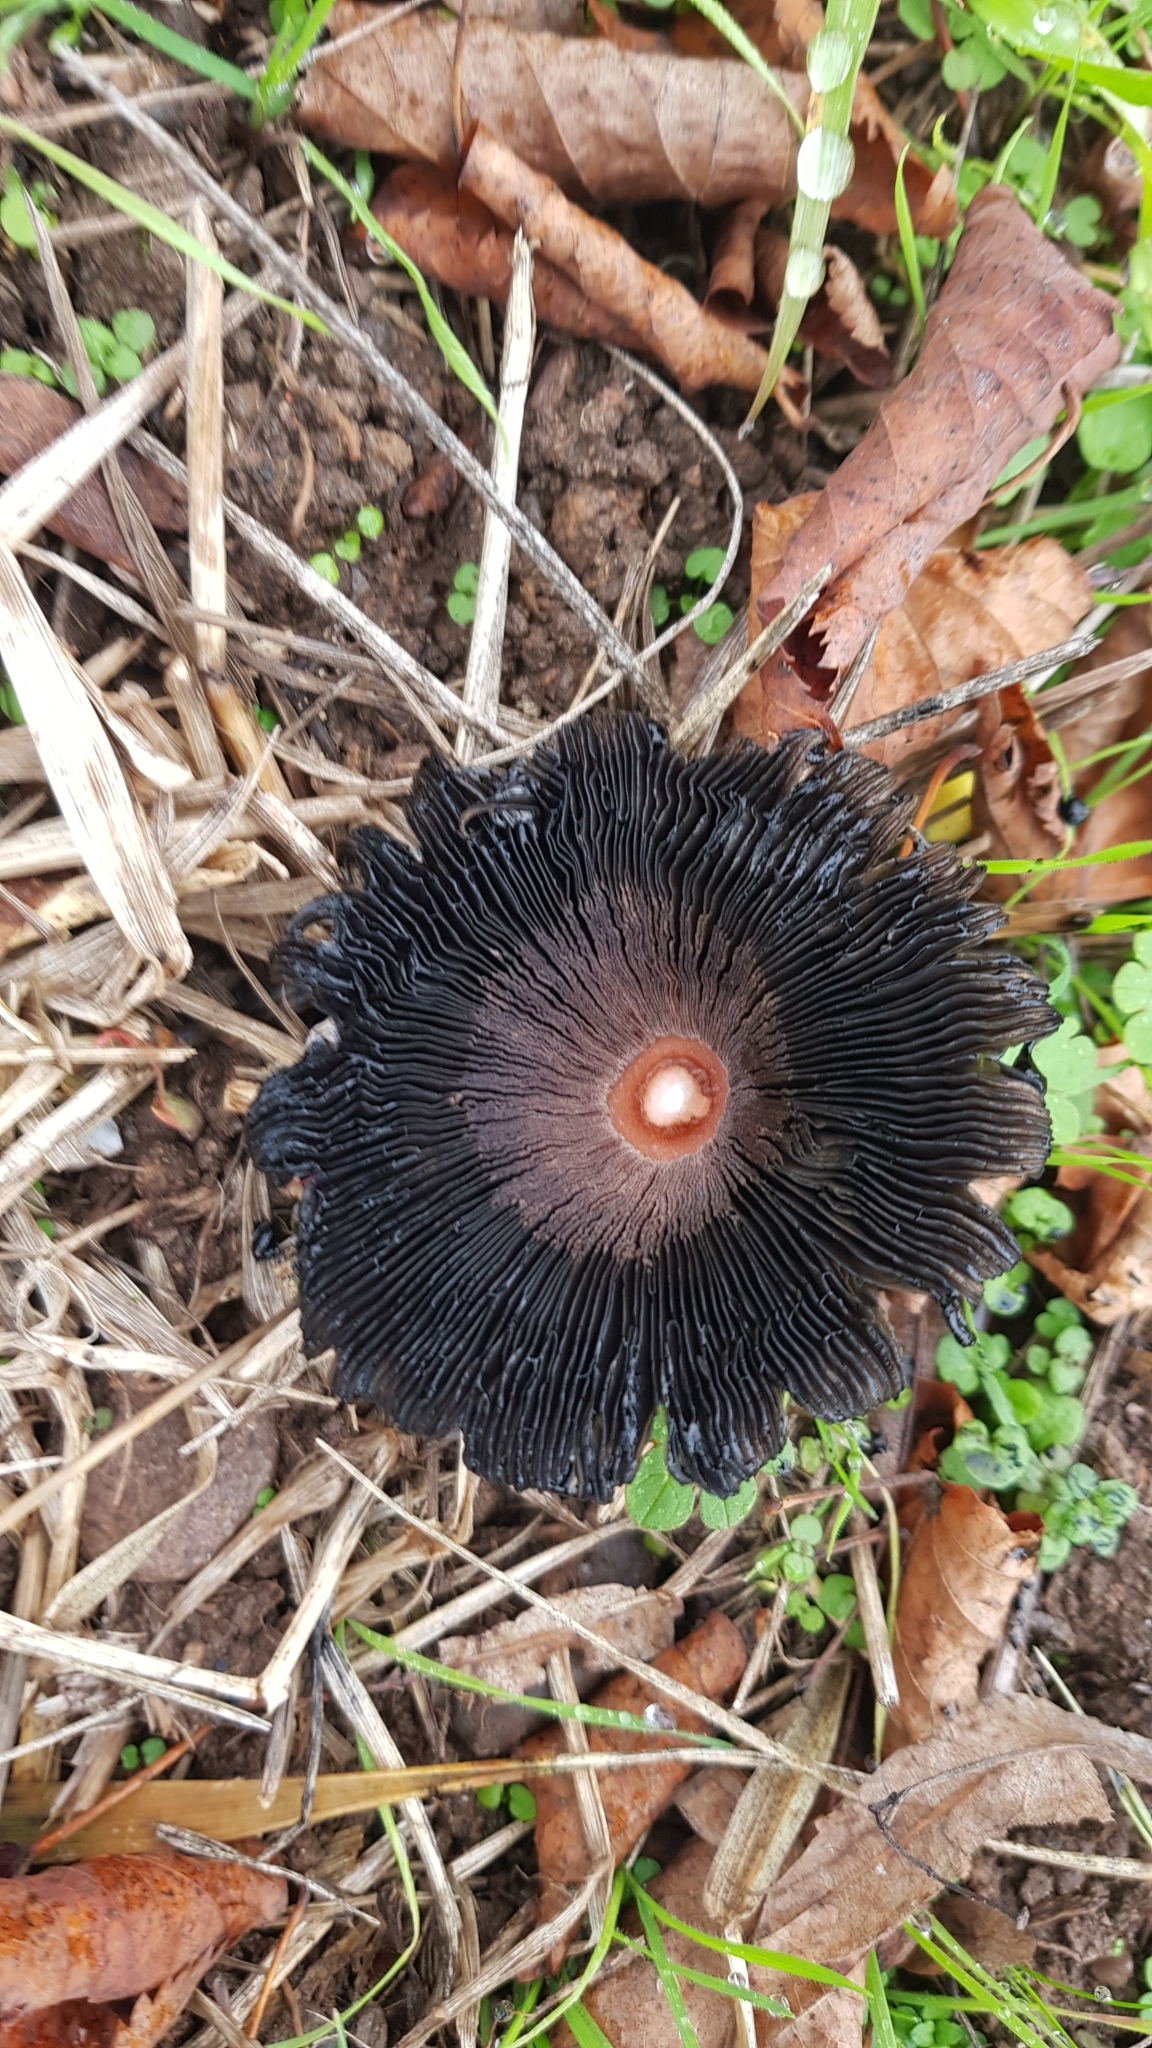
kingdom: Fungi
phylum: Basidiomycota
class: Agaricomycetes
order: Agaricales
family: Agaricaceae
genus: Coprinus
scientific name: Coprinus comatus
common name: Lawyer's wig
